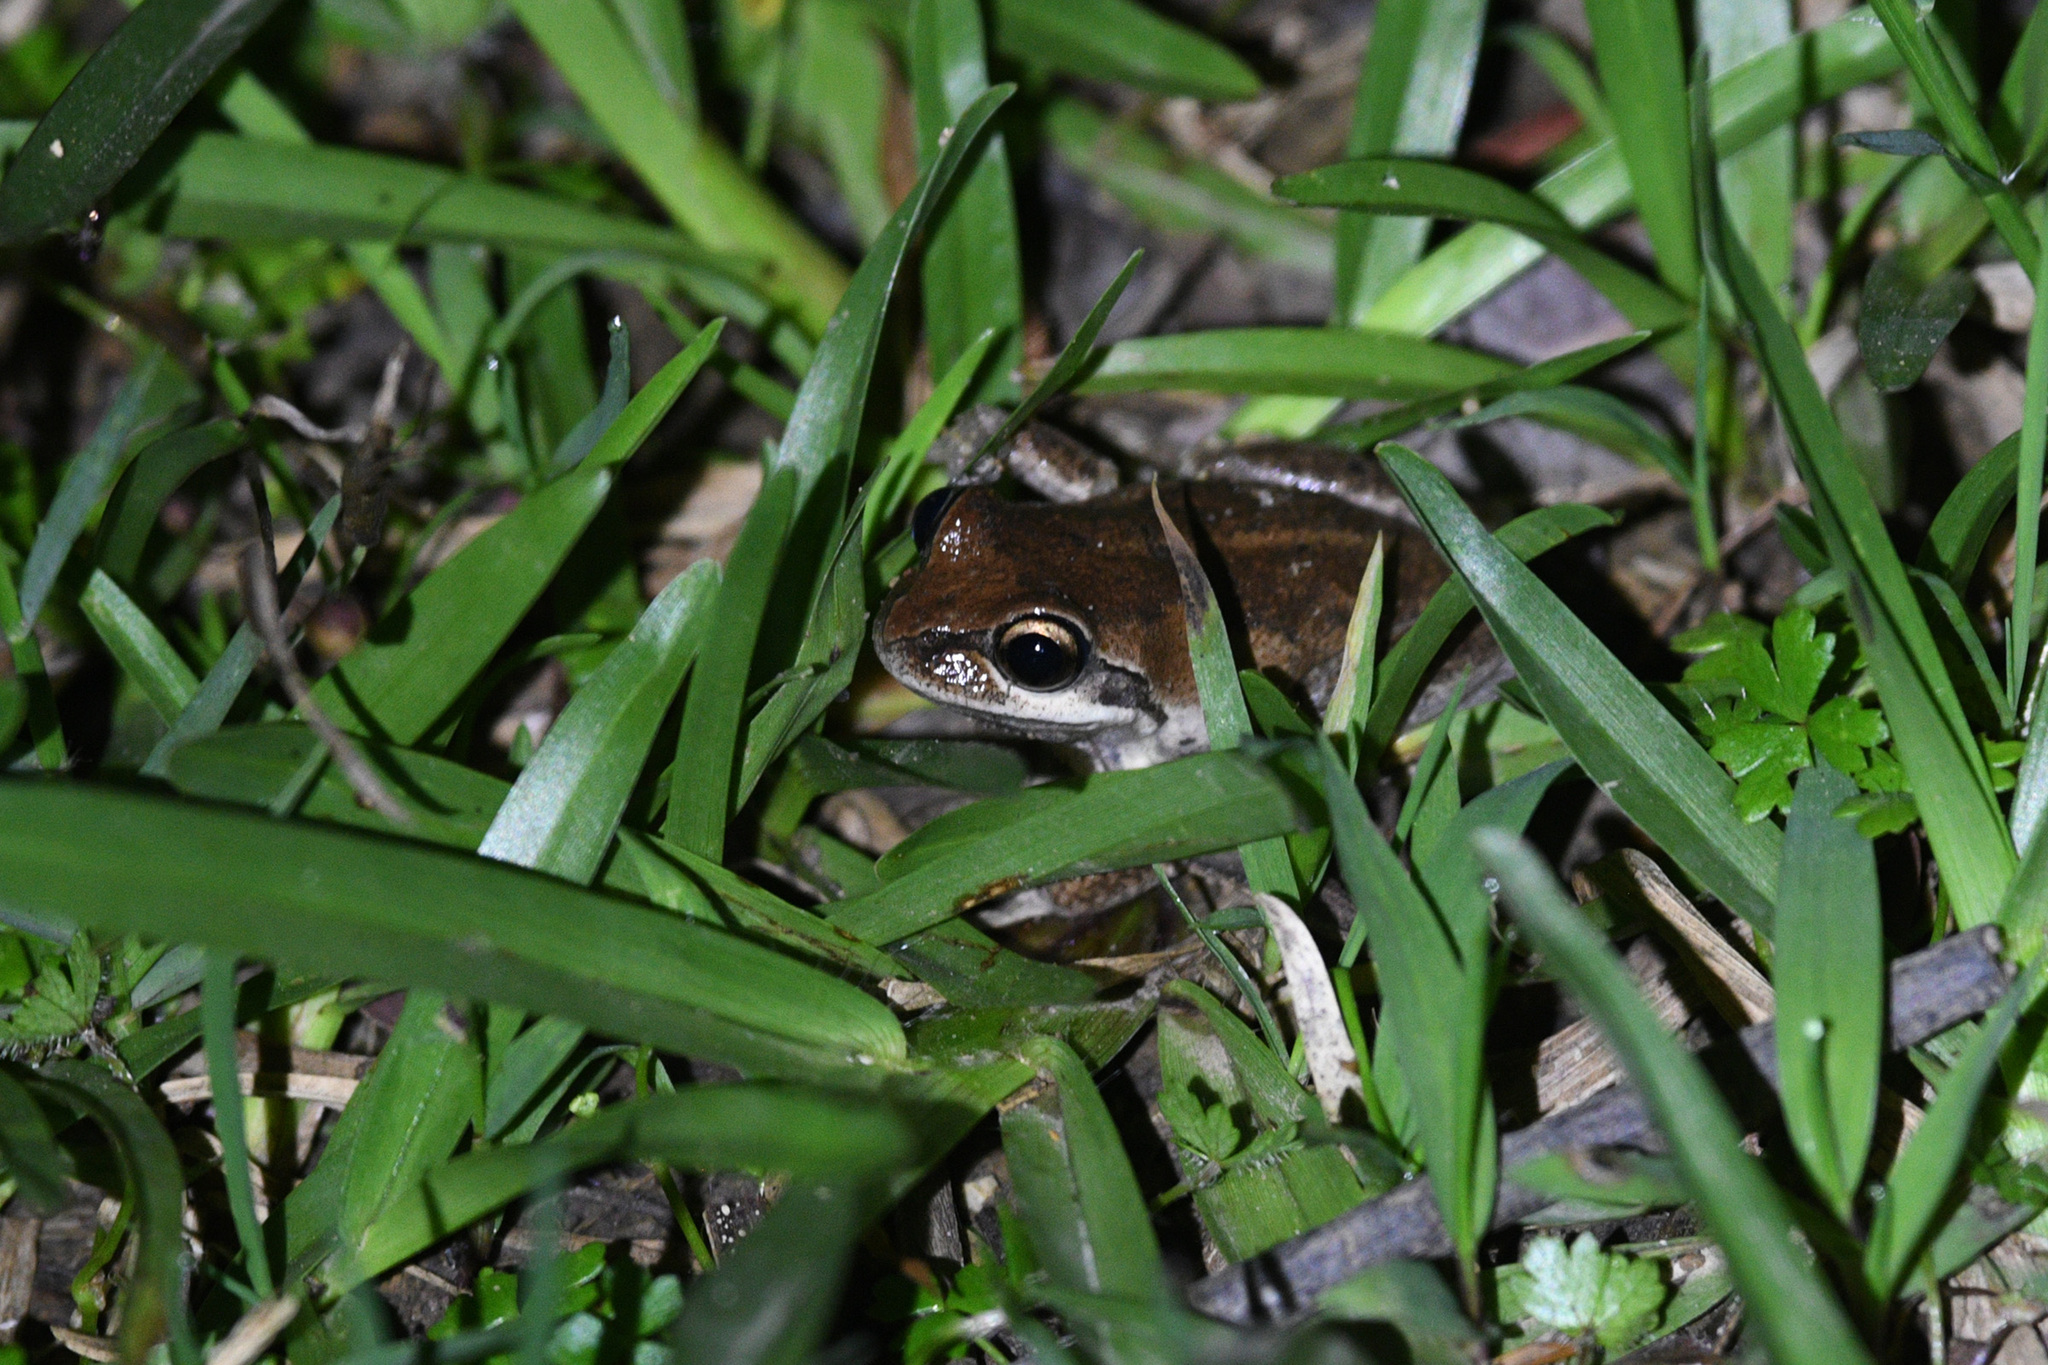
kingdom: Animalia
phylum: Chordata
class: Amphibia
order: Anura
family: Pelodryadidae
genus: Litoria
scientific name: Litoria verreauxii
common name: Alpine tree frog
